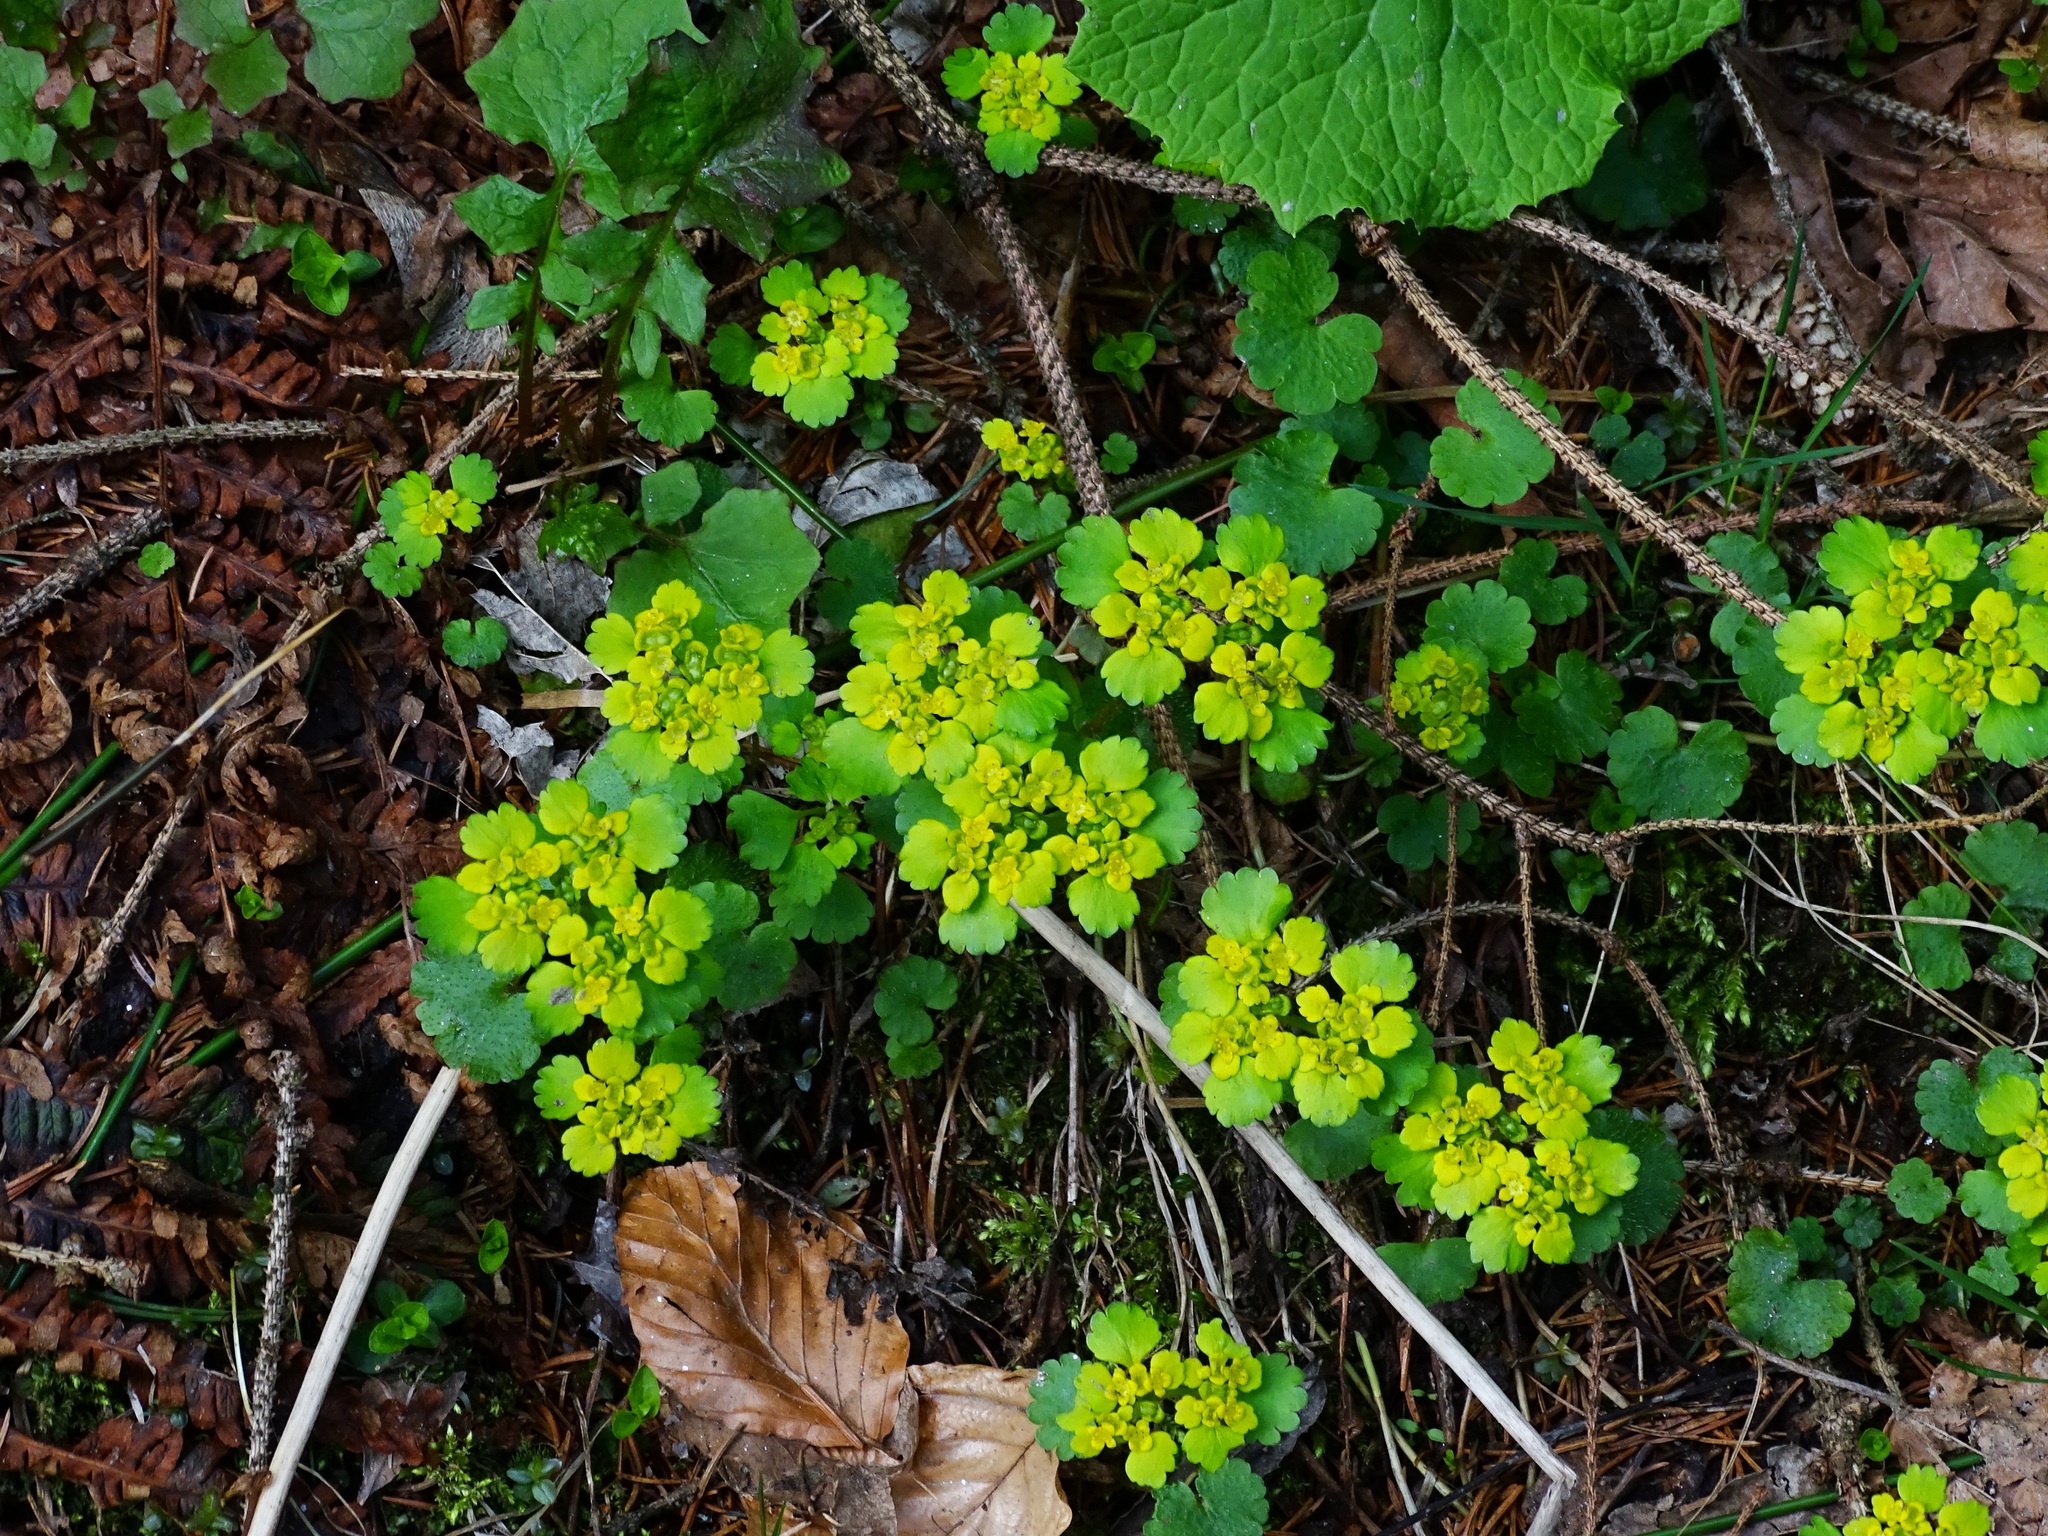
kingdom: Plantae
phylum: Tracheophyta
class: Magnoliopsida
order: Saxifragales
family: Saxifragaceae
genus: Chrysosplenium
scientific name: Chrysosplenium alternifolium
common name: Alternate-leaved golden-saxifrage
